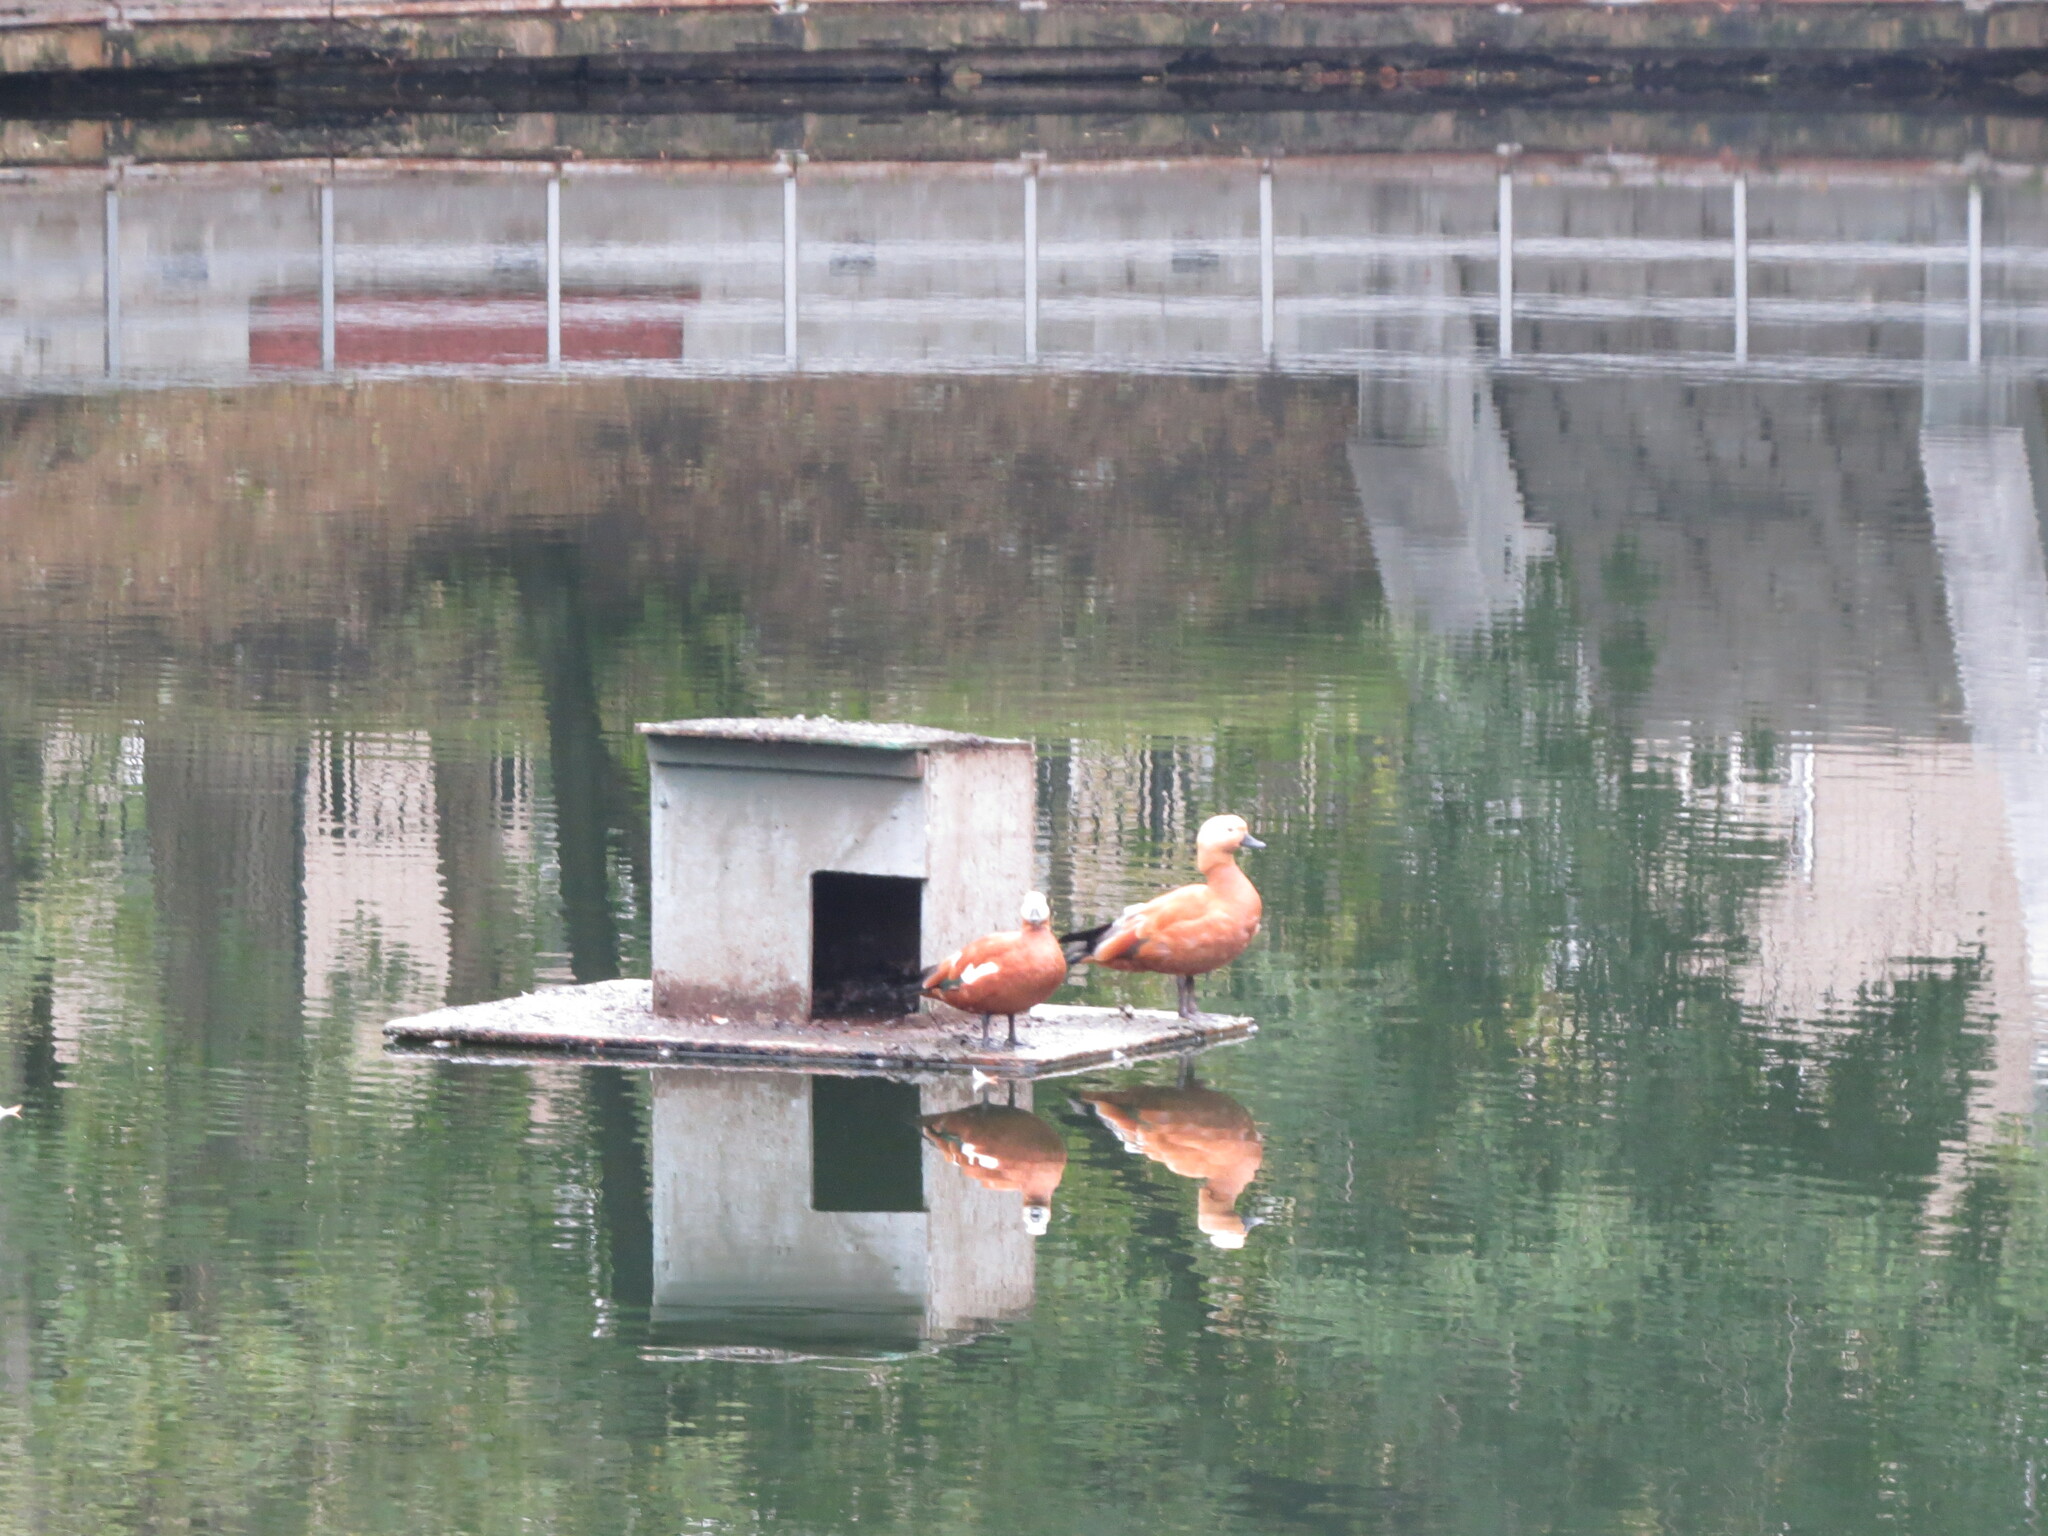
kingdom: Animalia
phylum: Chordata
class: Aves
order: Anseriformes
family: Anatidae
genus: Tadorna
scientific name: Tadorna ferruginea
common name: Ruddy shelduck
